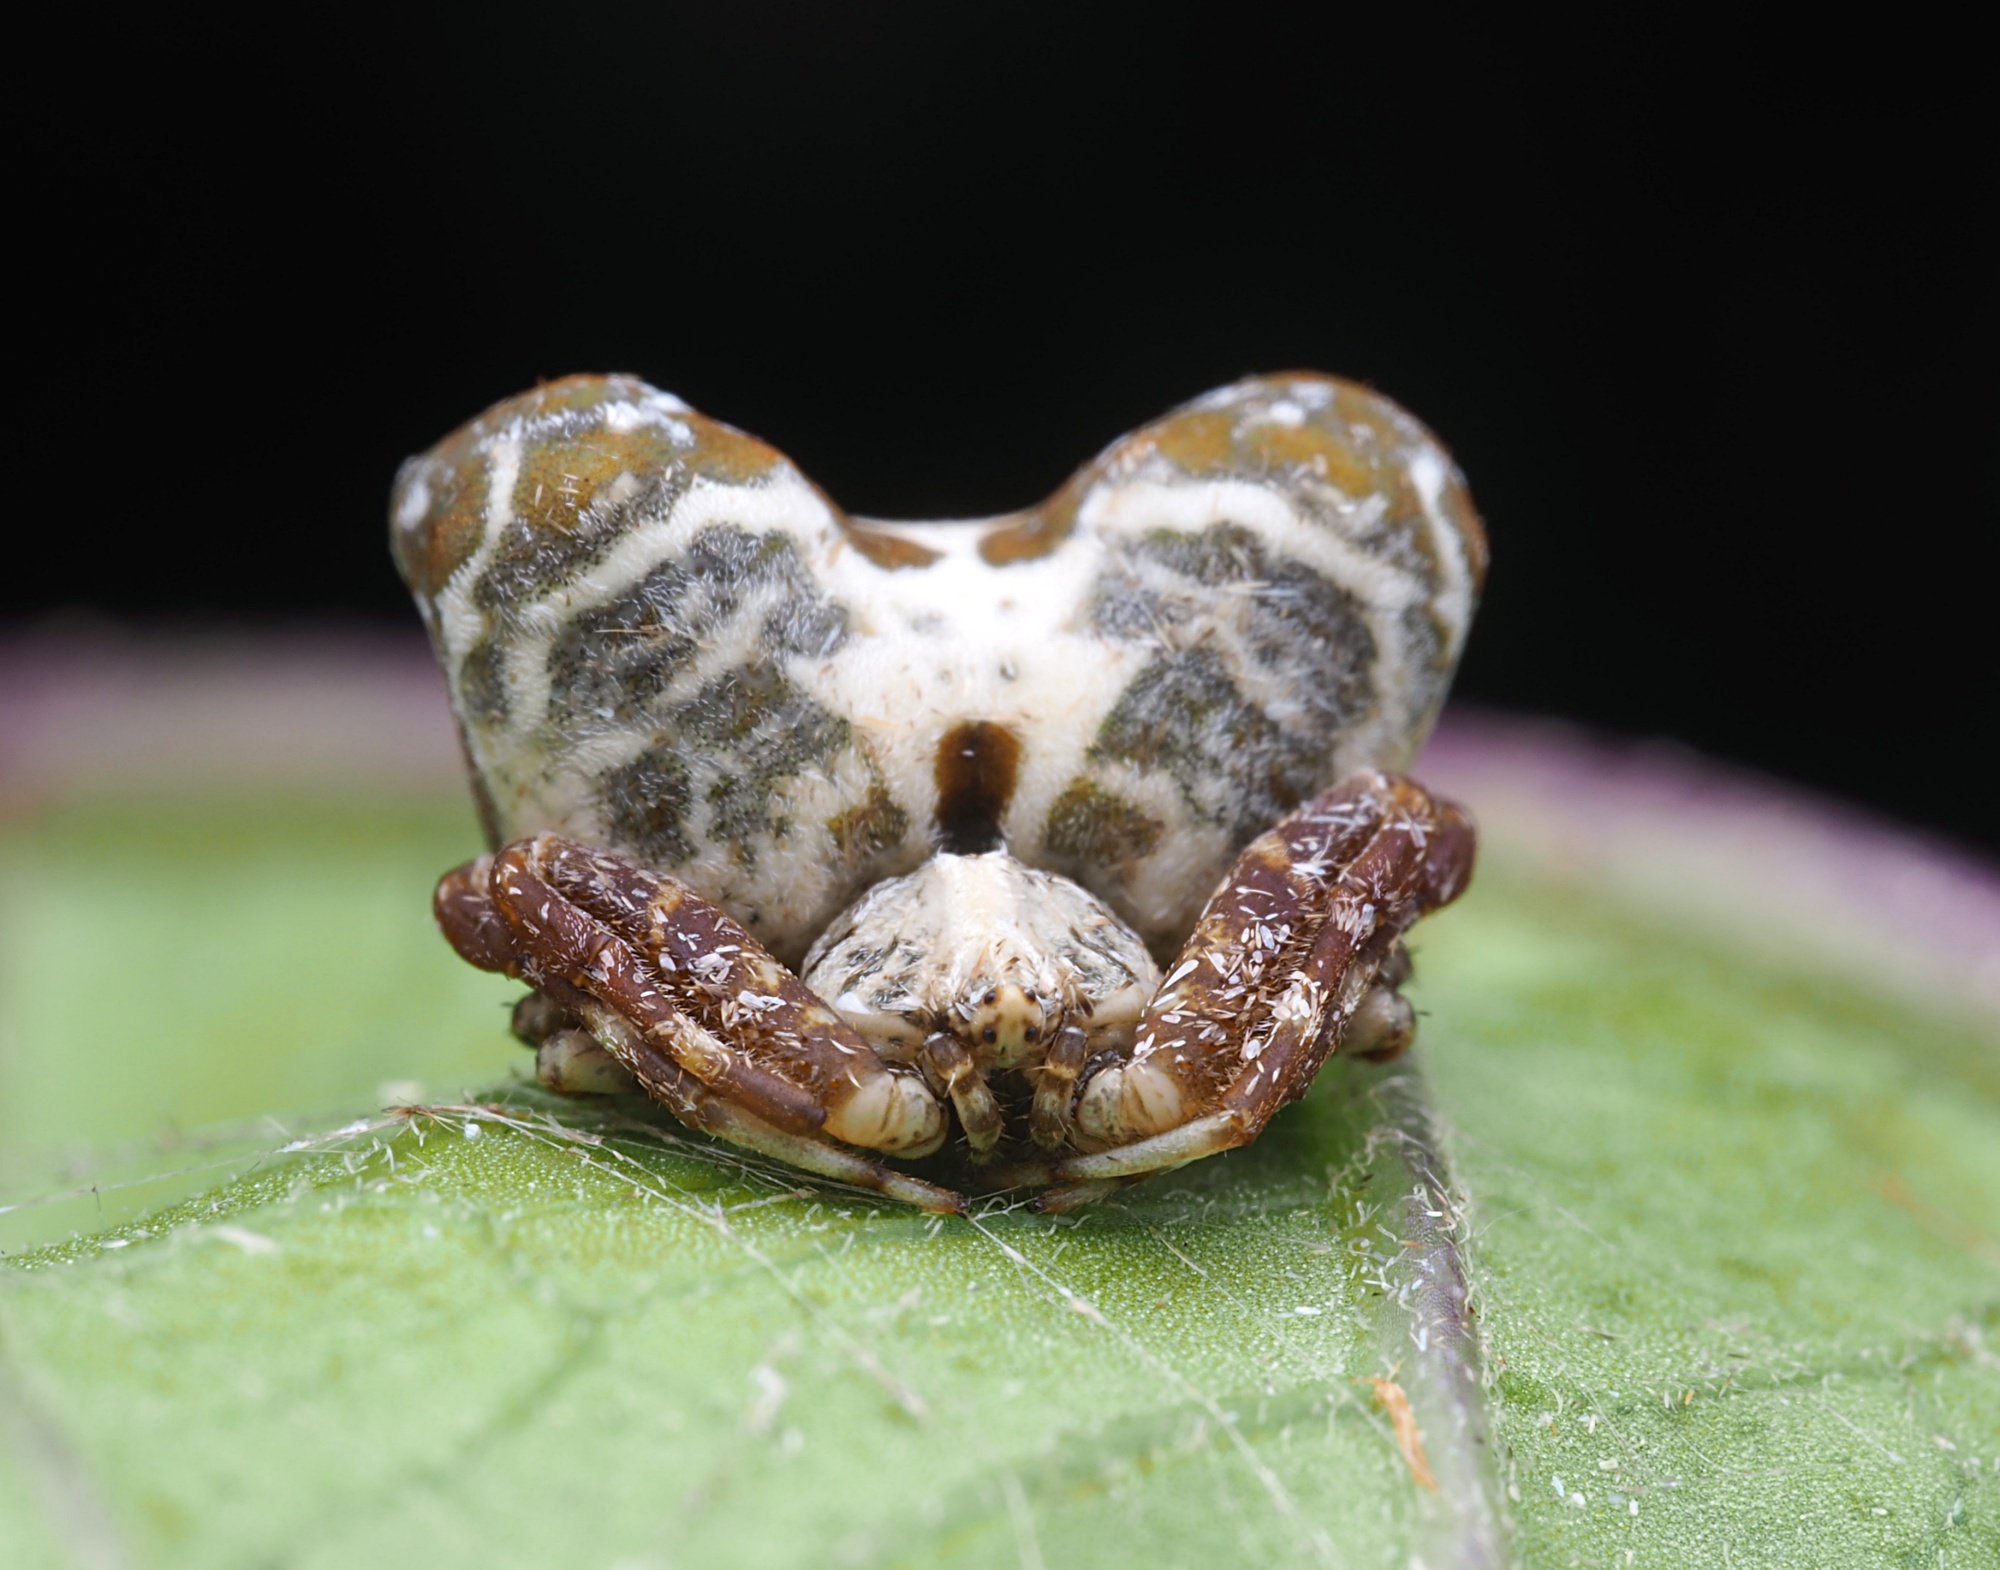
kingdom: Animalia
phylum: Arthropoda
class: Arachnida
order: Araneae
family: Araneidae
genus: Celaenia
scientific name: Celaenia olivacea
